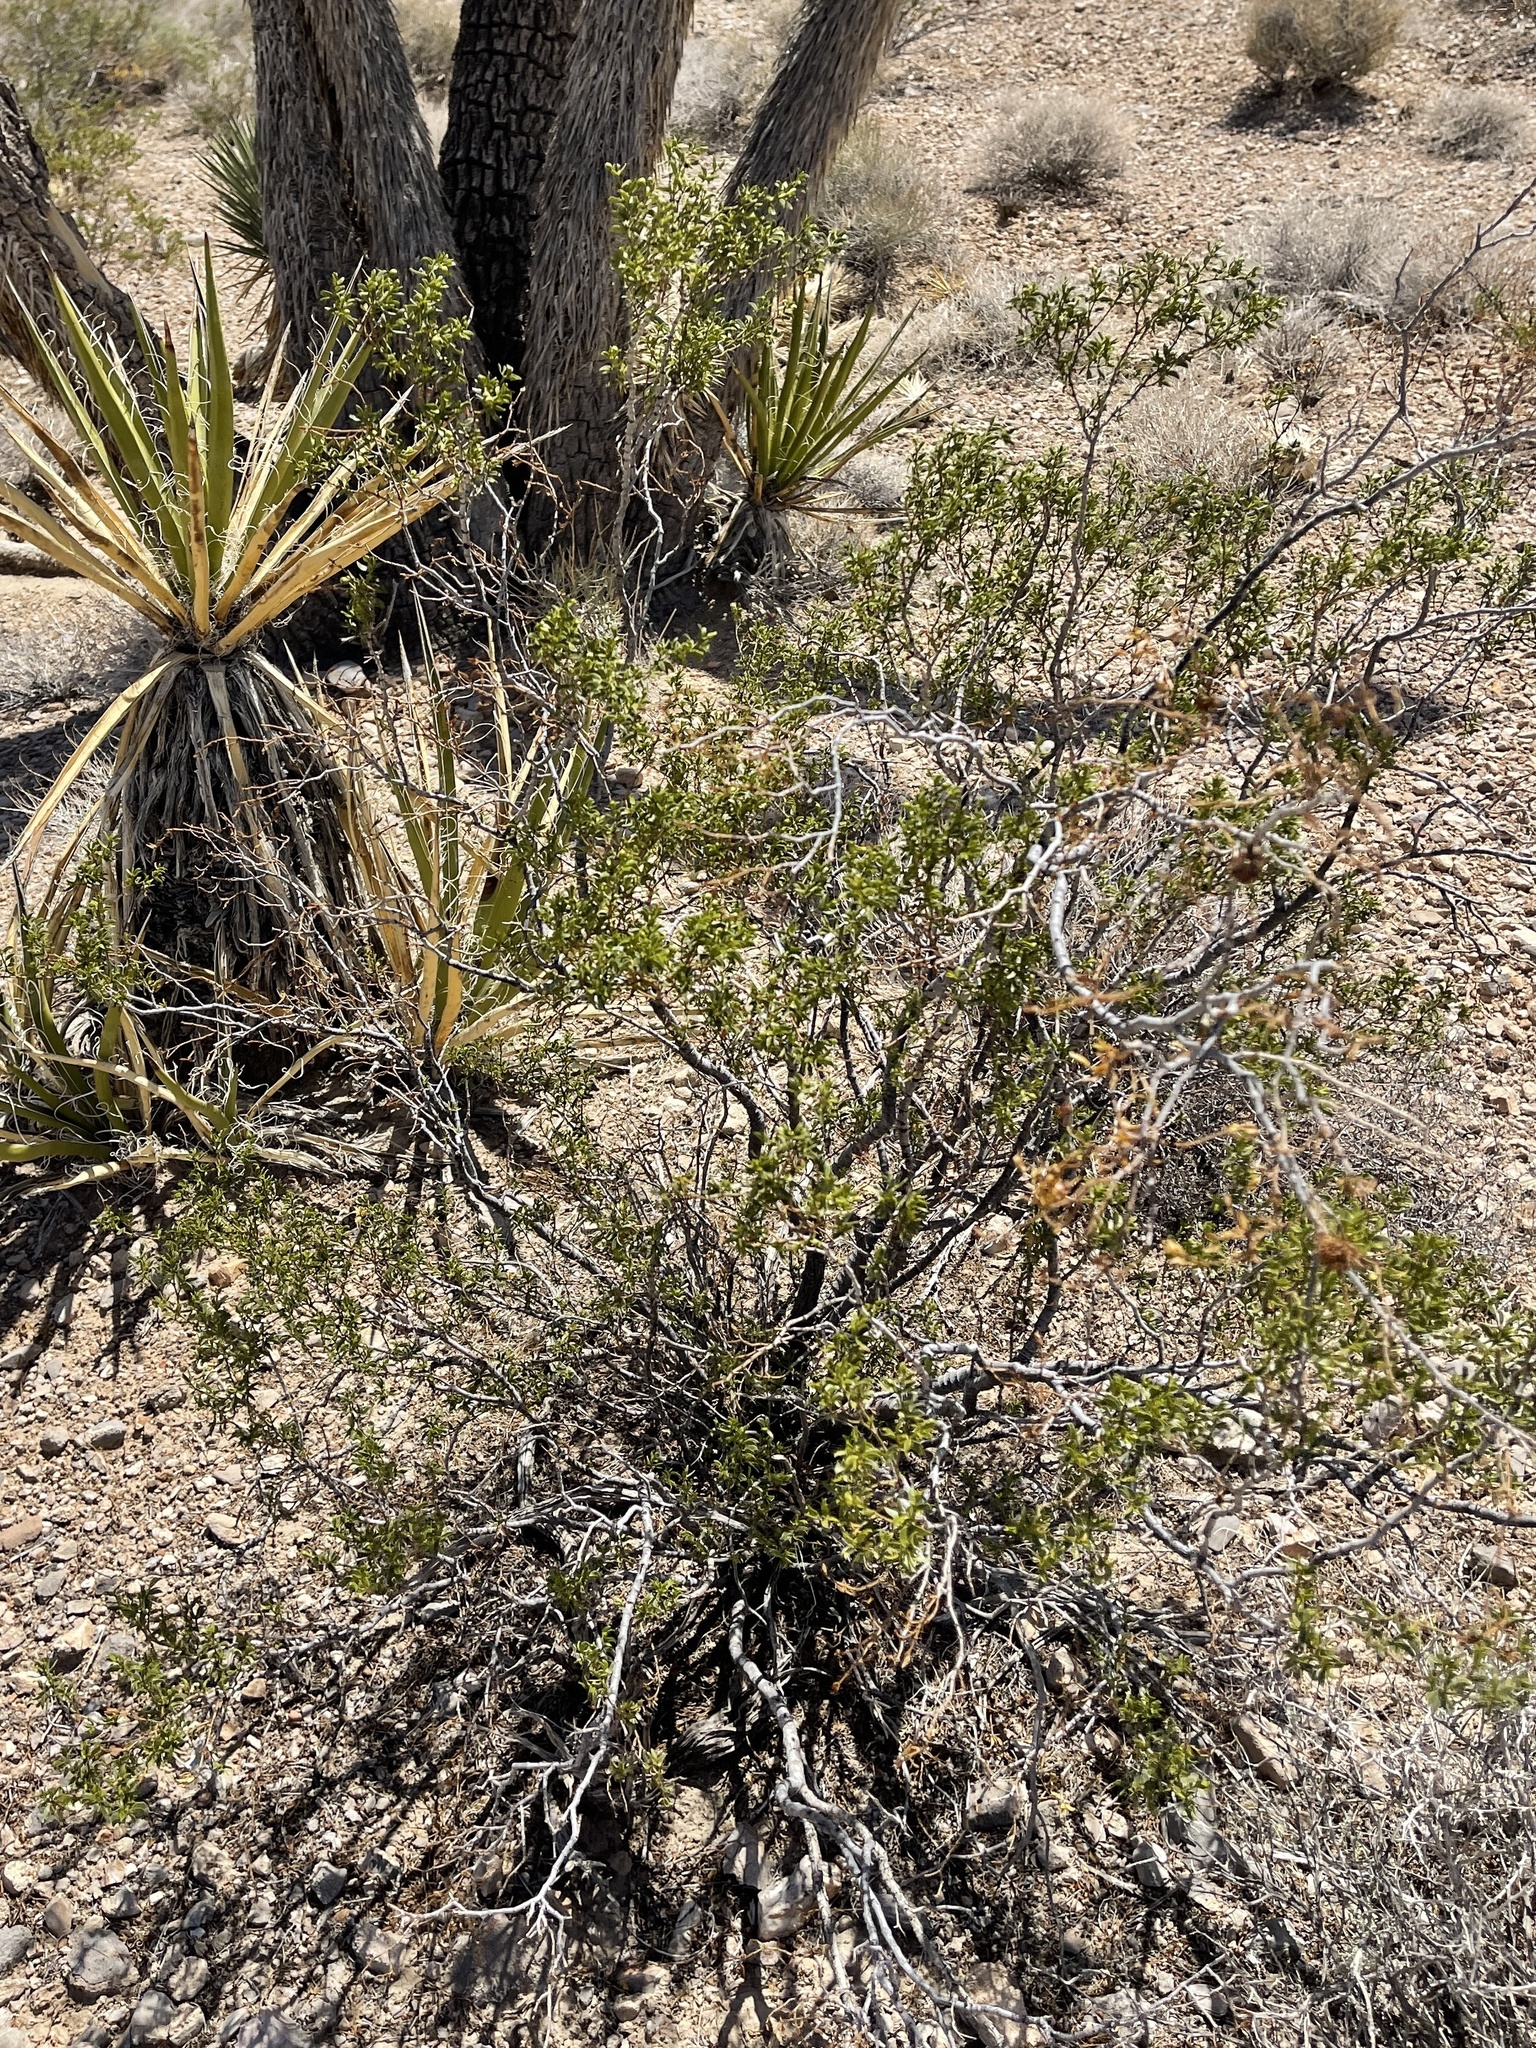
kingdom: Plantae
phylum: Tracheophyta
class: Magnoliopsida
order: Zygophyllales
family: Zygophyllaceae
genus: Larrea
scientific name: Larrea tridentata
